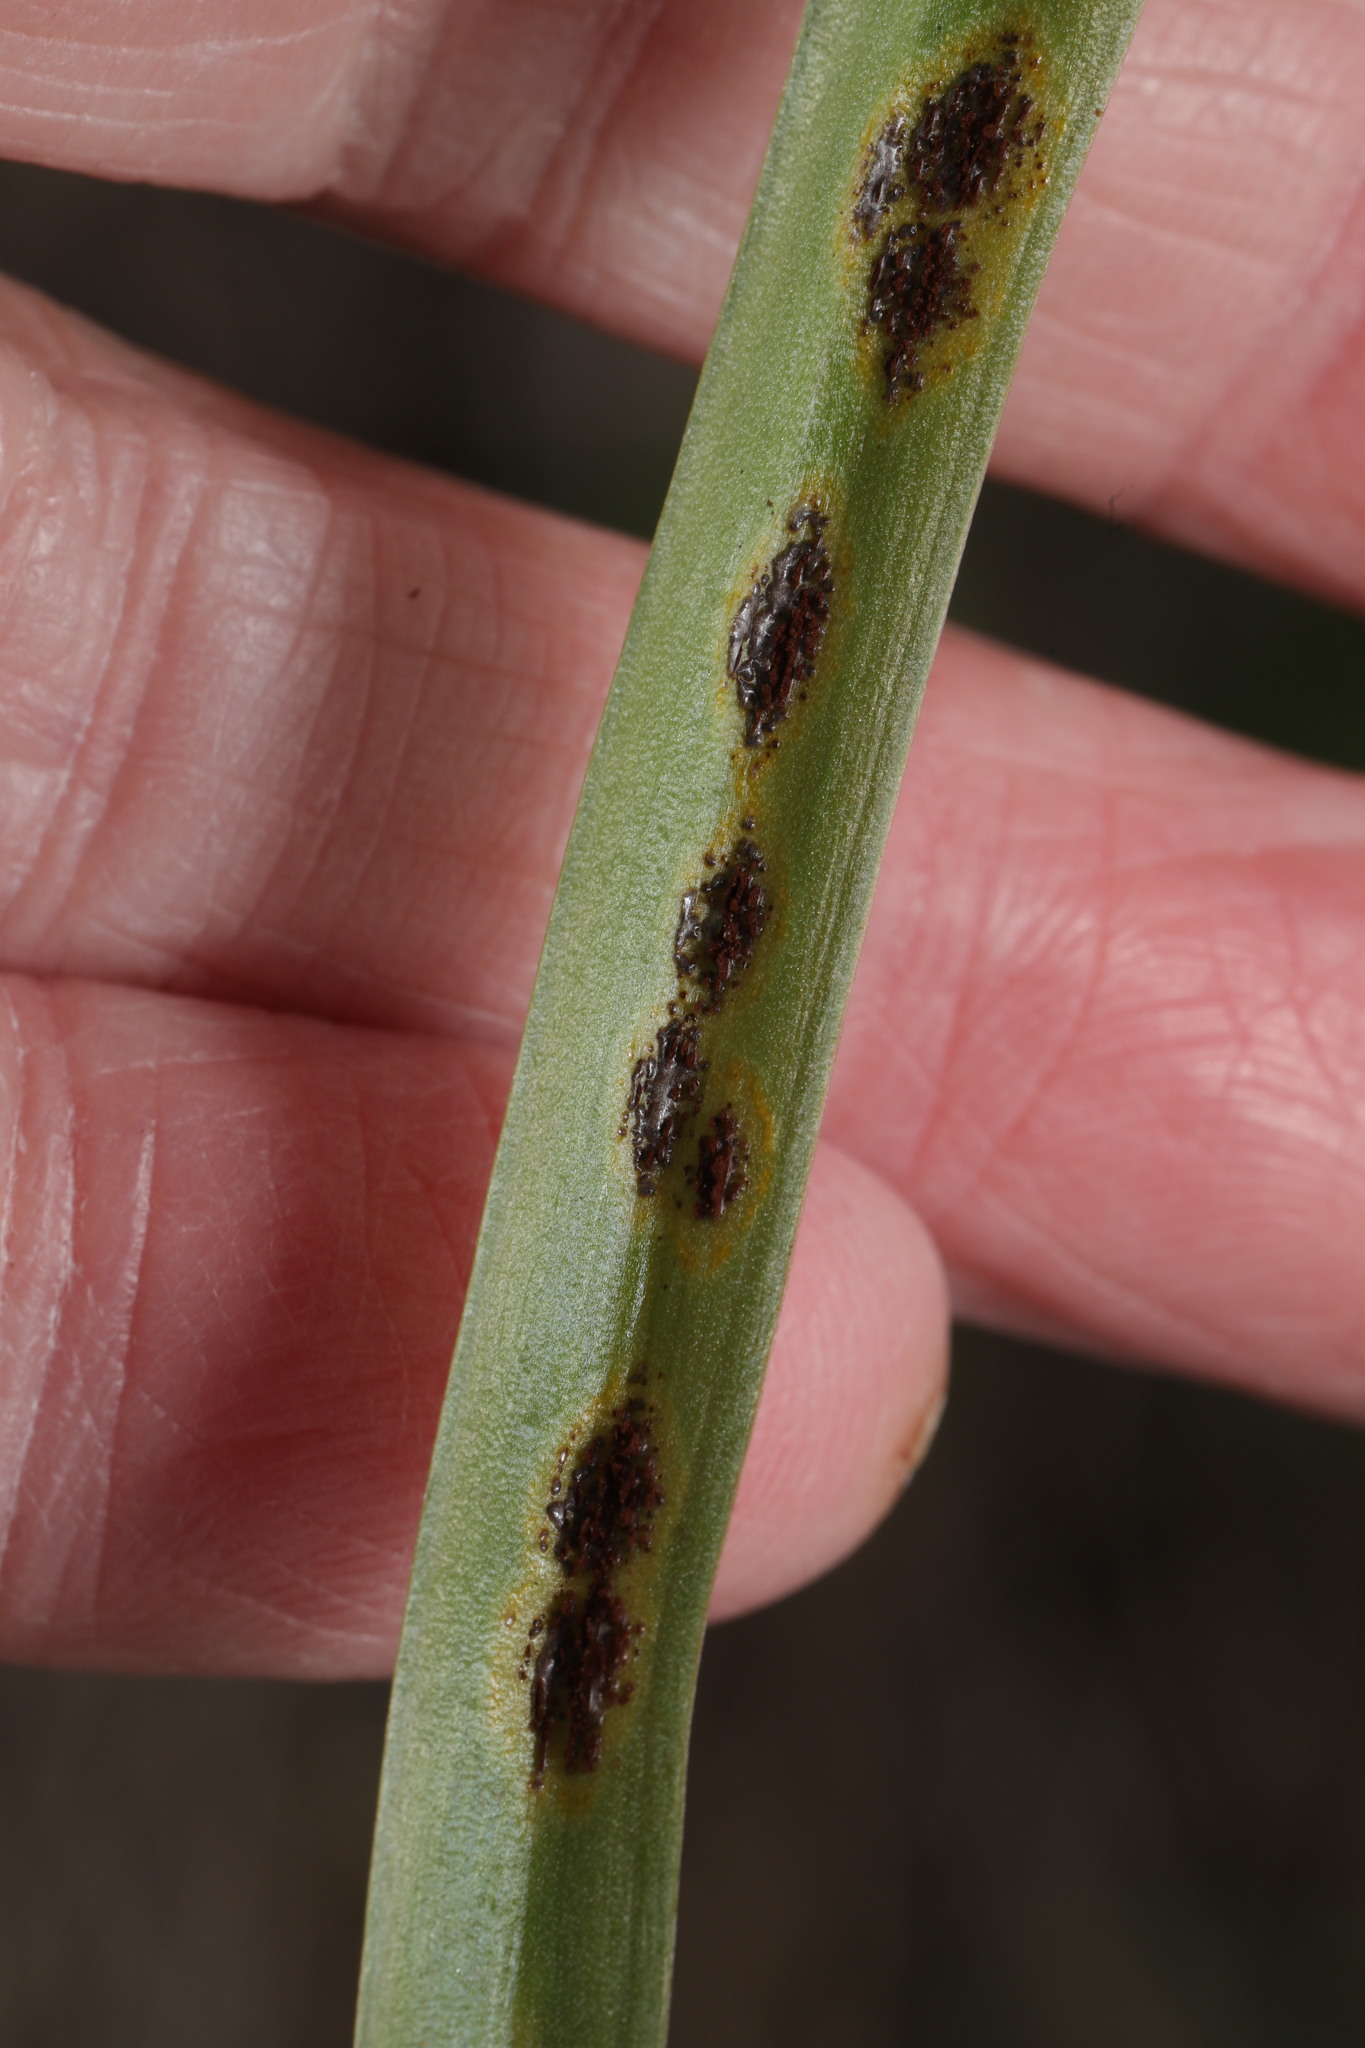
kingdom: Fungi
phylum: Basidiomycota
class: Pucciniomycetes
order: Pucciniales
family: Pucciniaceae
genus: Uromyces
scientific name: Uromyces hyacinthi
